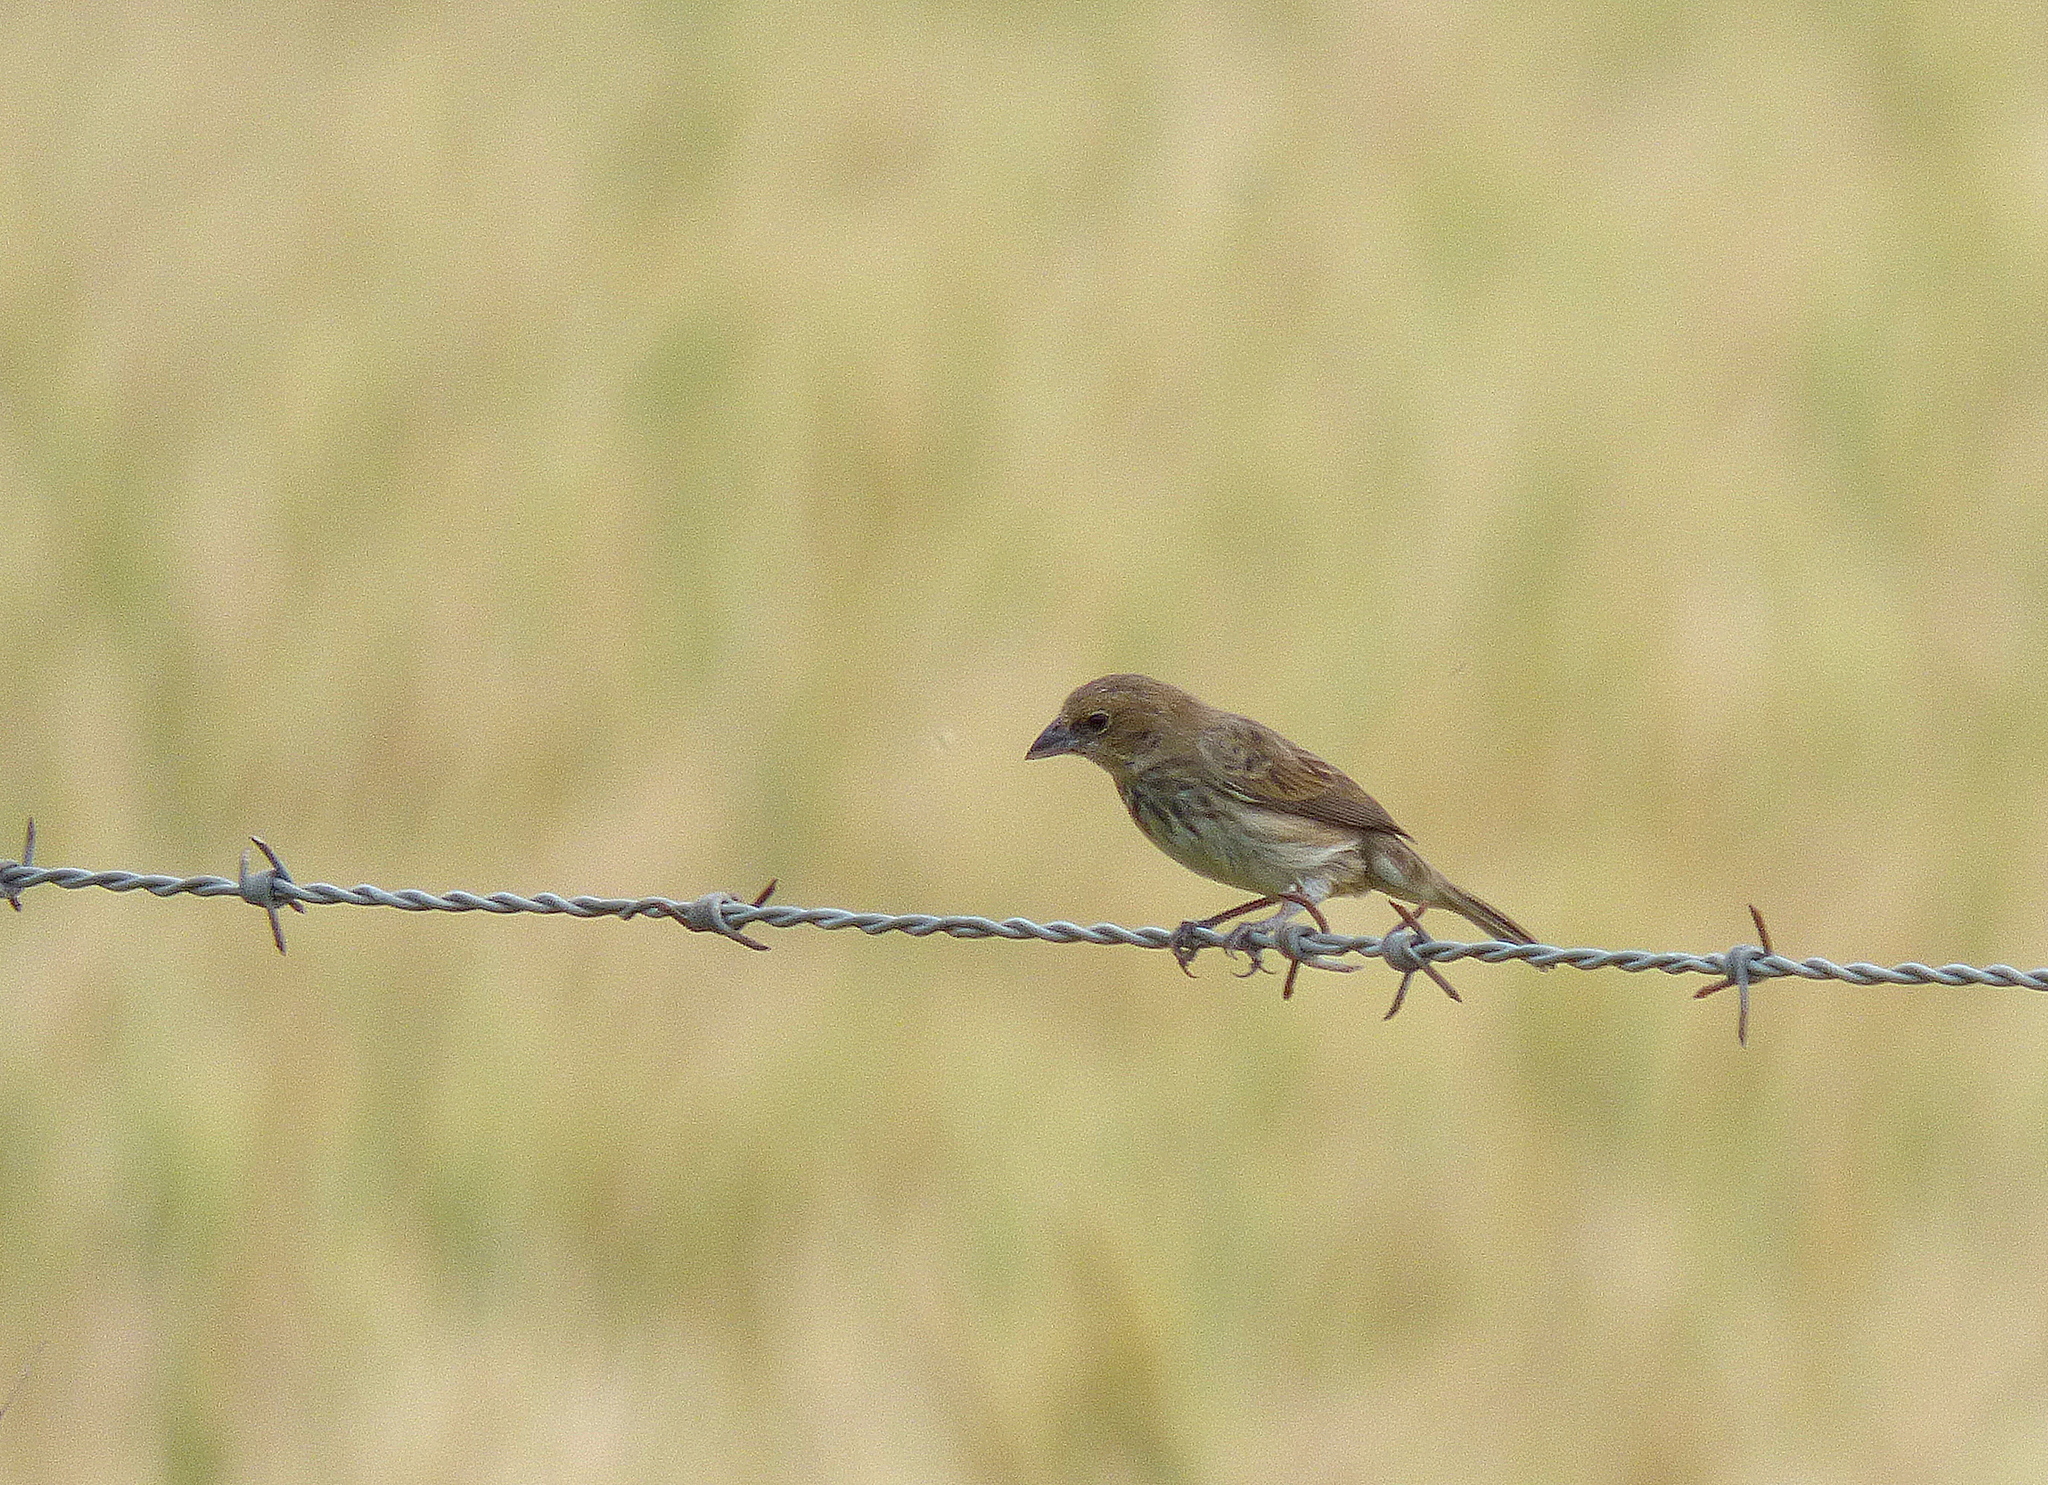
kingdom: Animalia
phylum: Chordata
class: Aves
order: Passeriformes
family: Thraupidae
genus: Volatinia
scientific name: Volatinia jacarina
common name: Blue-black grassquit
